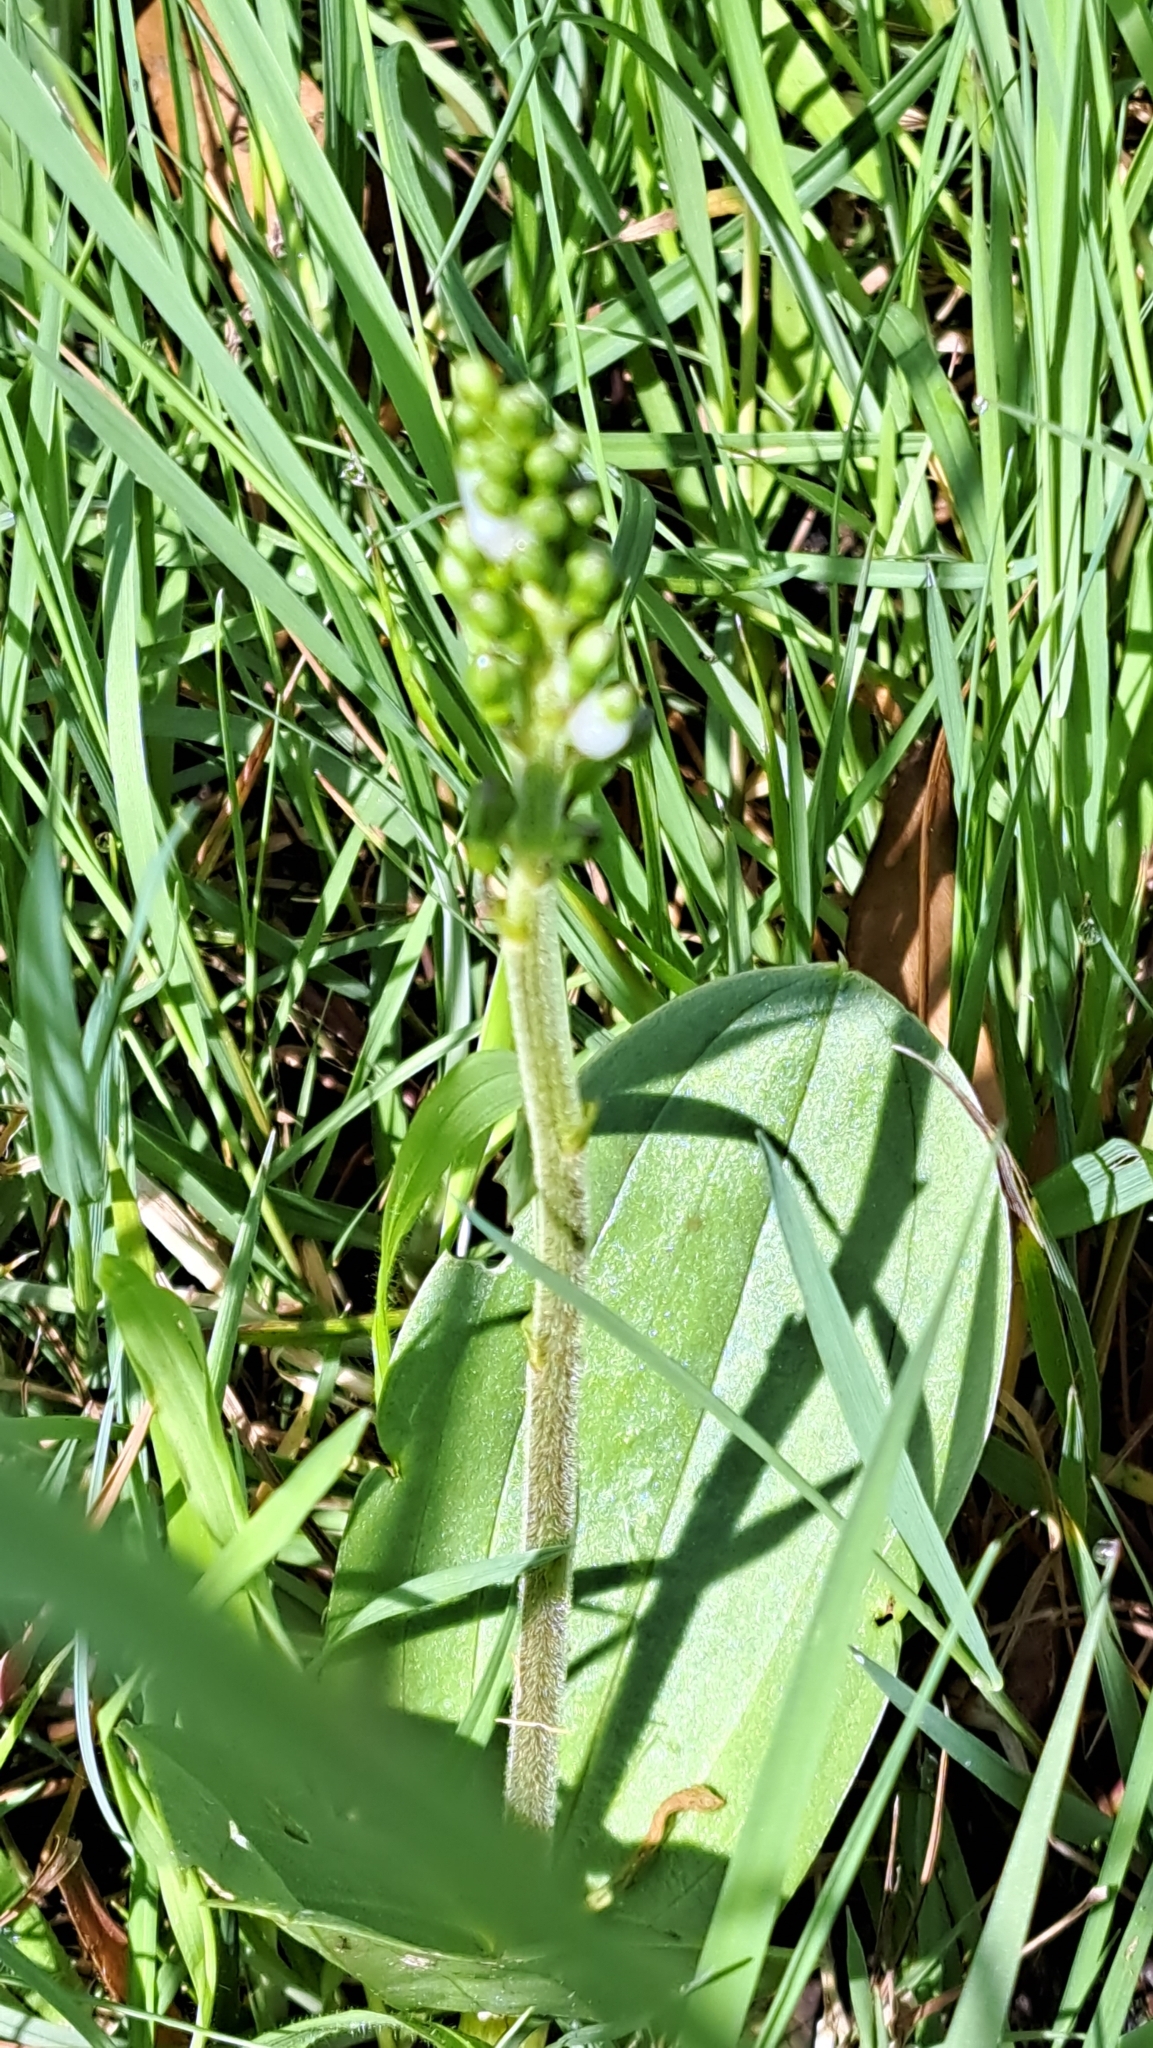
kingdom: Plantae
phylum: Tracheophyta
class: Liliopsida
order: Asparagales
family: Orchidaceae
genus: Neottia
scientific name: Neottia ovata
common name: Common twayblade
